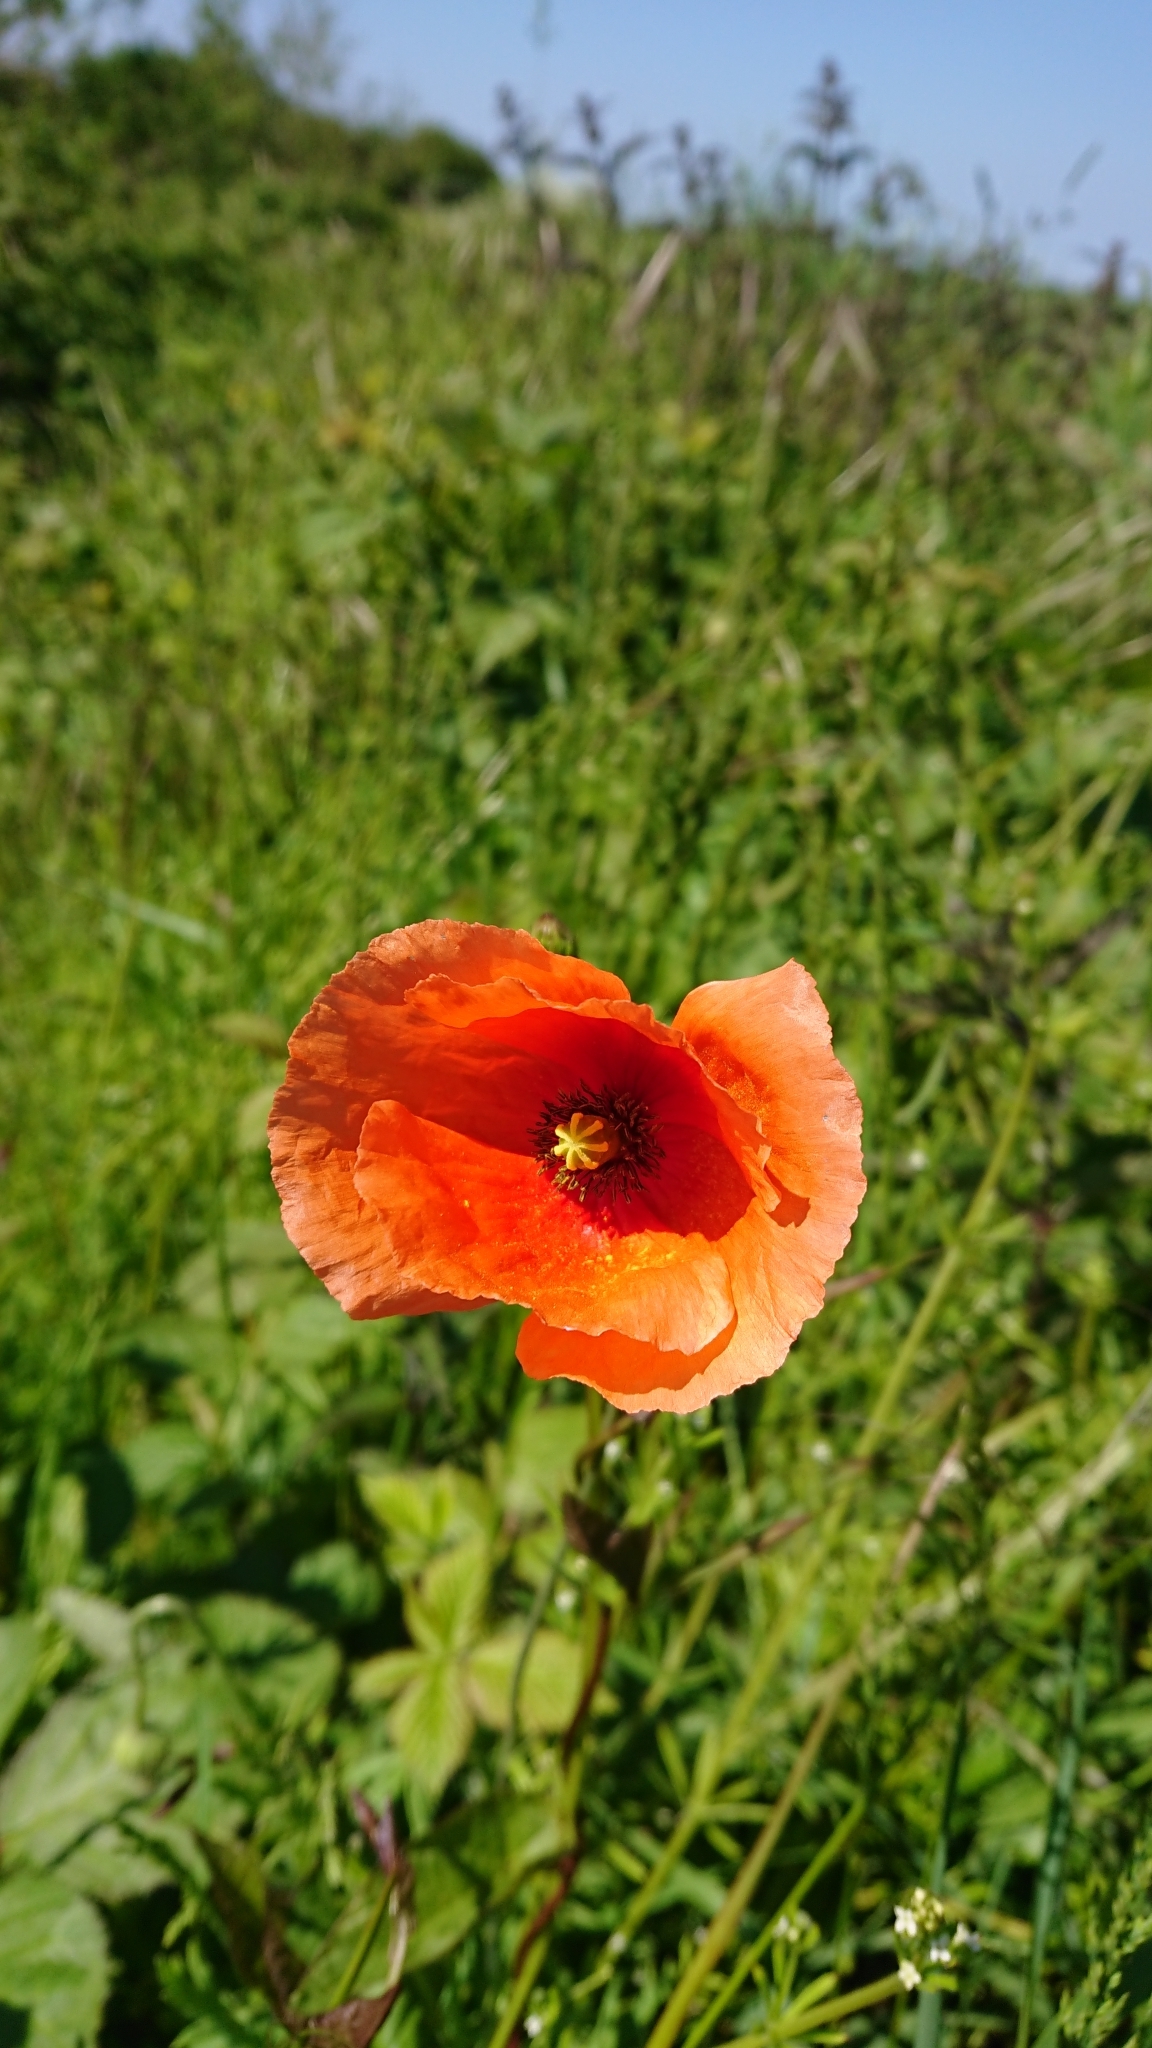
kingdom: Plantae
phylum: Tracheophyta
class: Magnoliopsida
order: Ranunculales
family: Papaveraceae
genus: Papaver
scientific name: Papaver rhoeas
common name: Corn poppy
